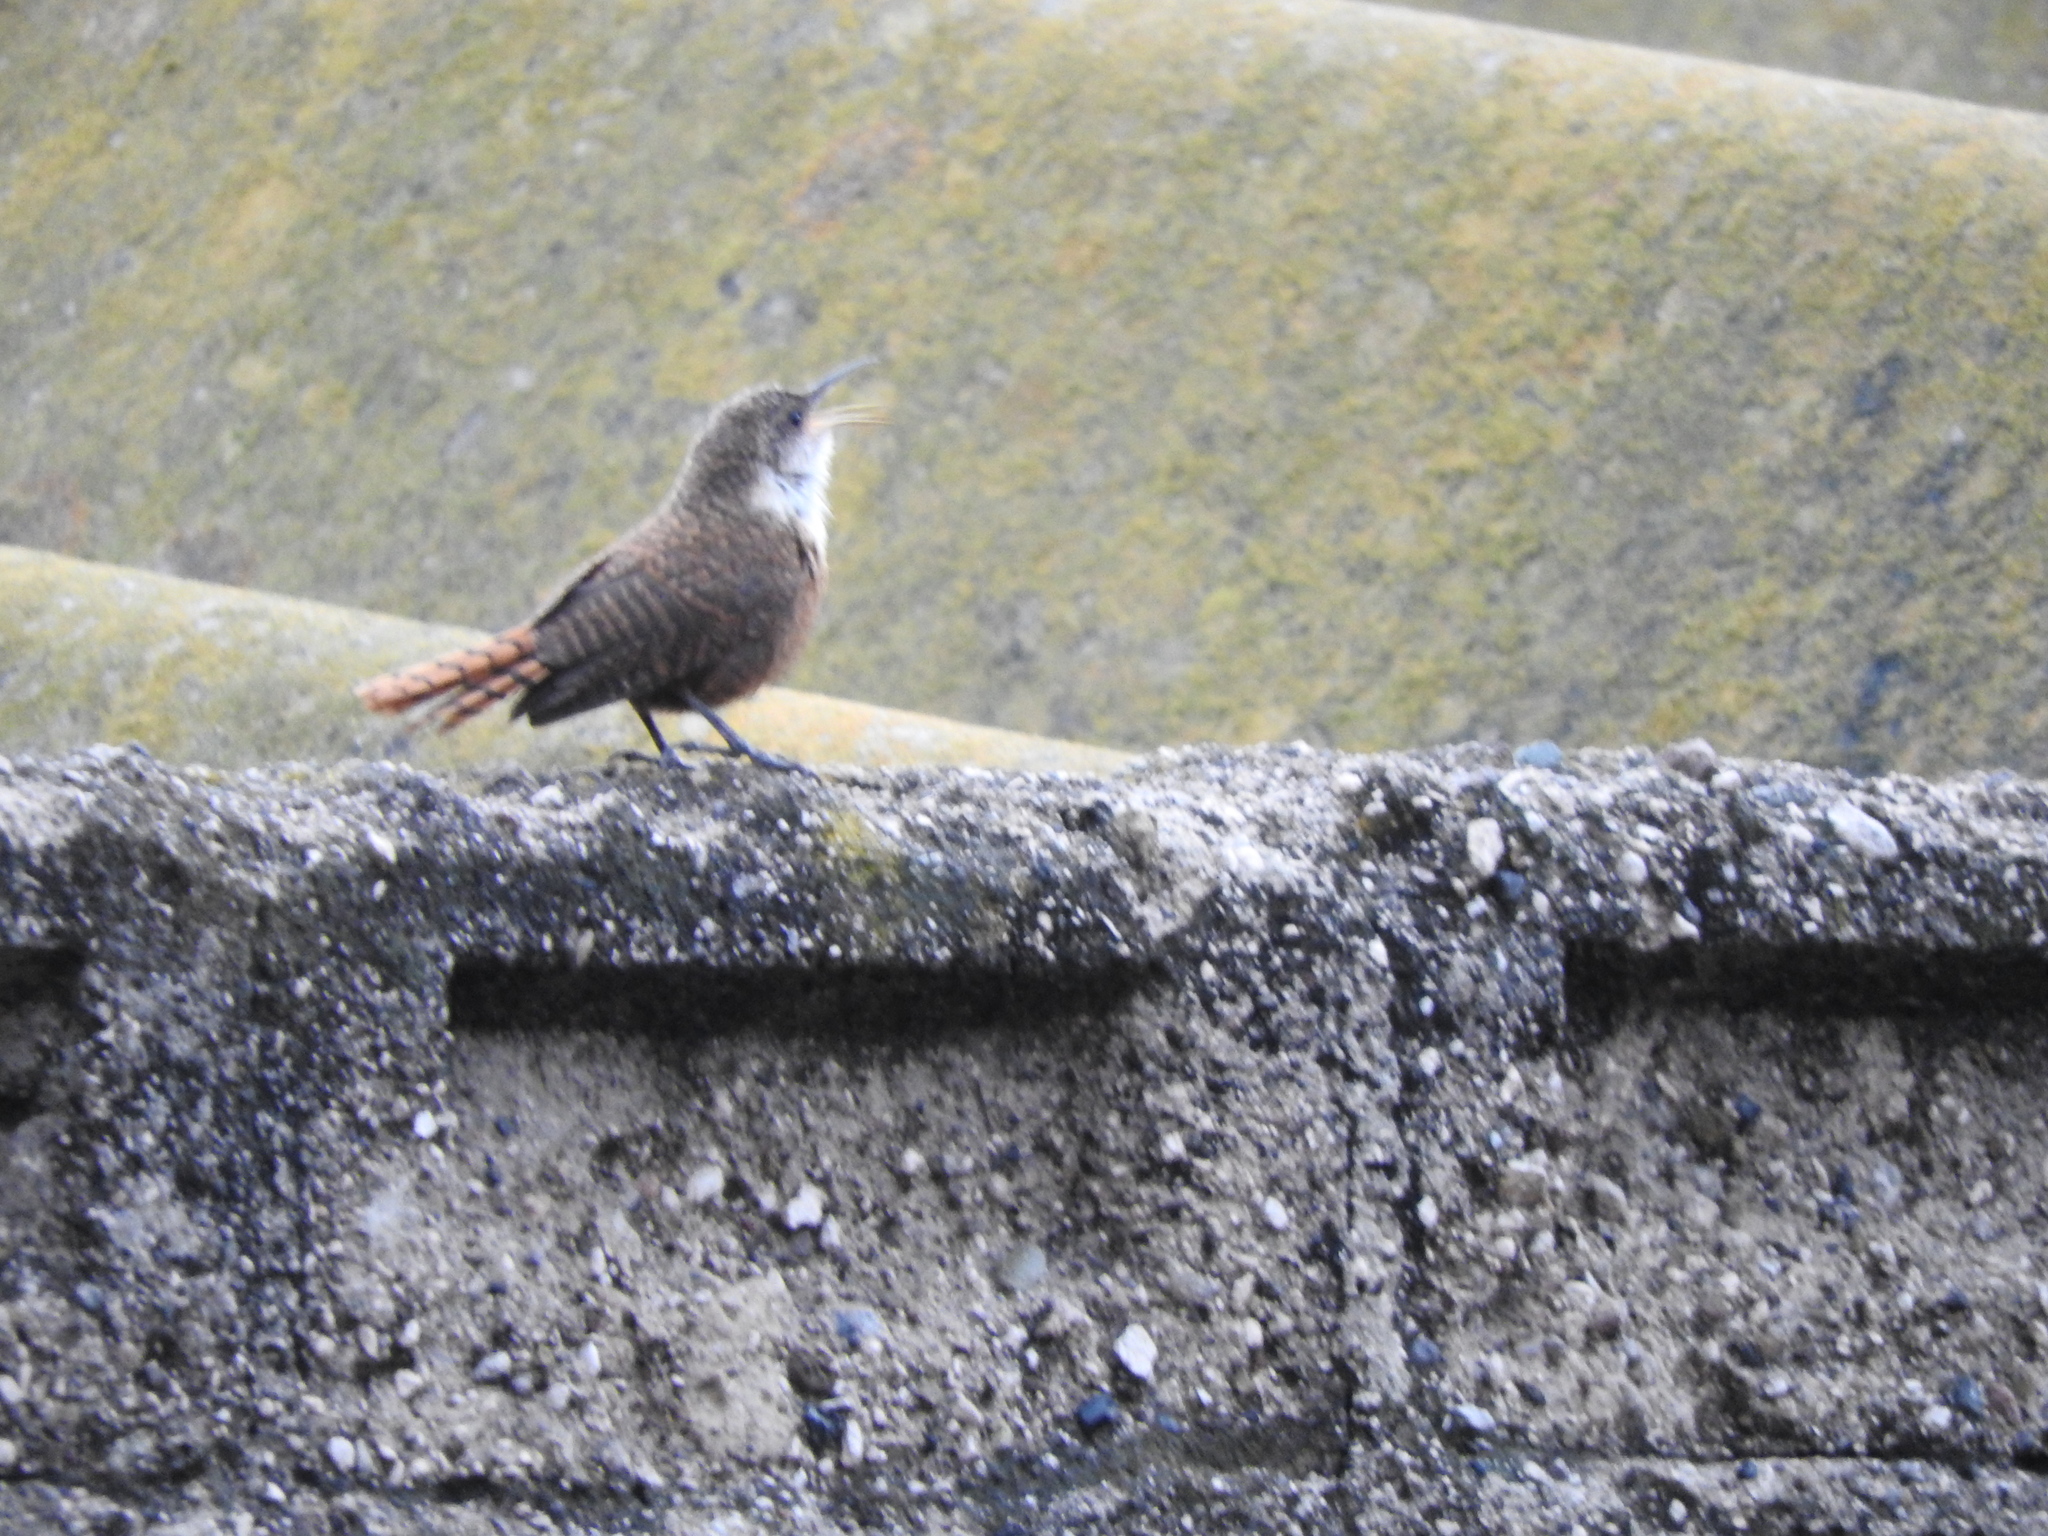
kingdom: Animalia
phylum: Chordata
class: Aves
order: Passeriformes
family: Troglodytidae
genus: Catherpes
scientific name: Catherpes mexicanus
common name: Canyon wren
